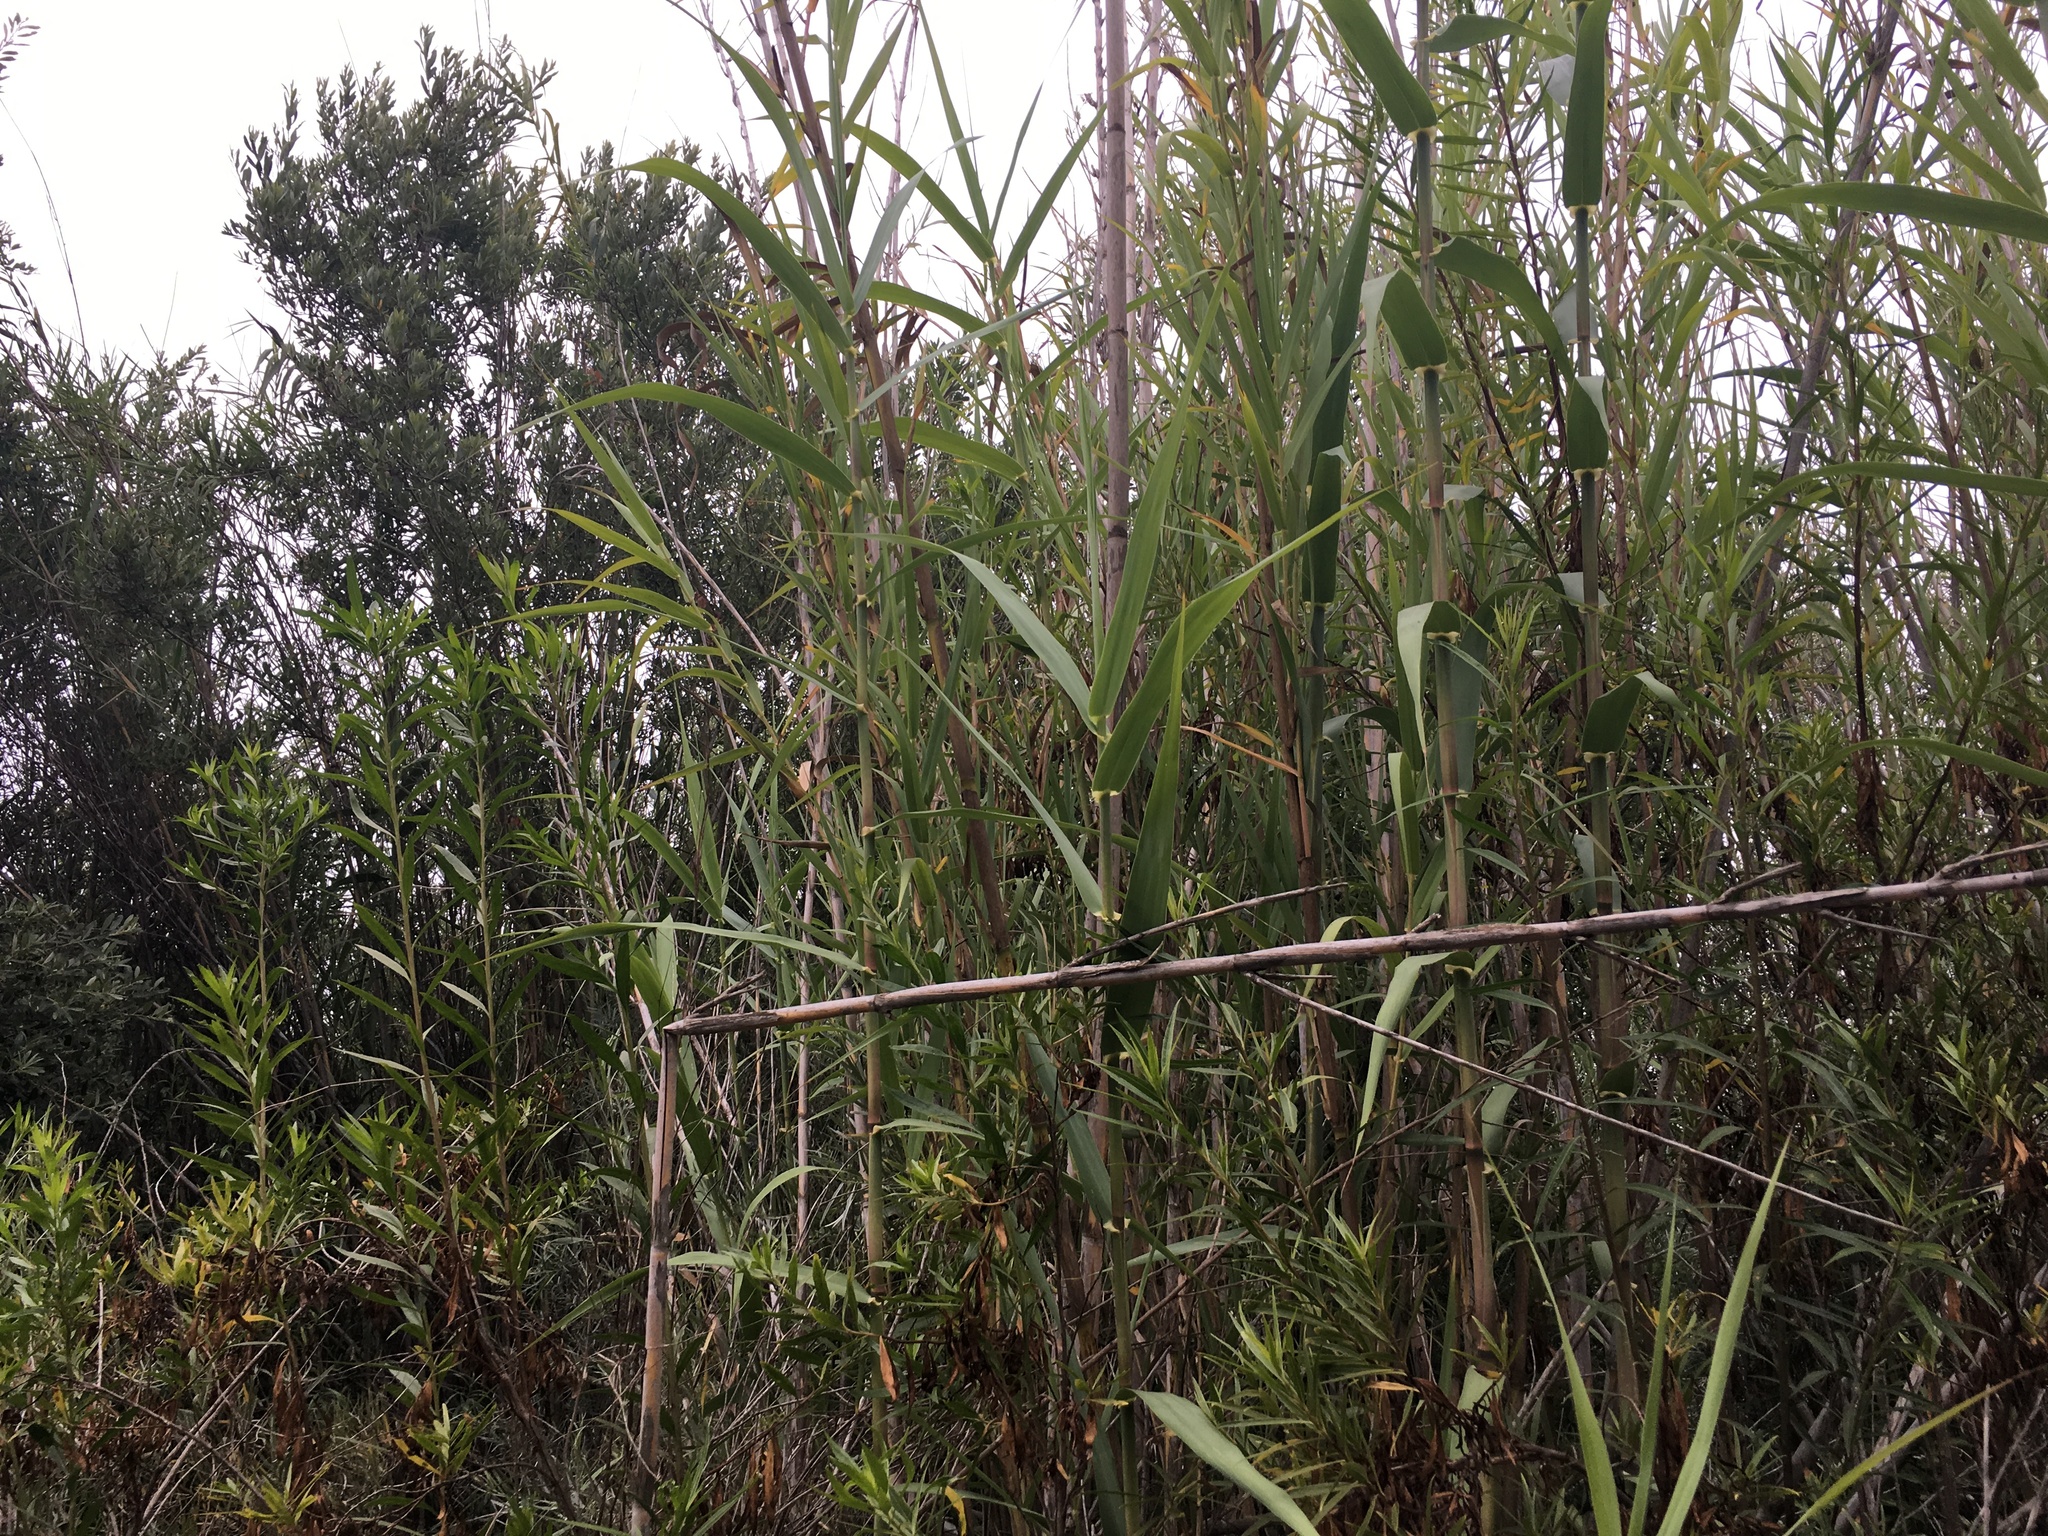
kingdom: Plantae
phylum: Tracheophyta
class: Liliopsida
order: Poales
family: Poaceae
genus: Arundo
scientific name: Arundo donax
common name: Giant reed
